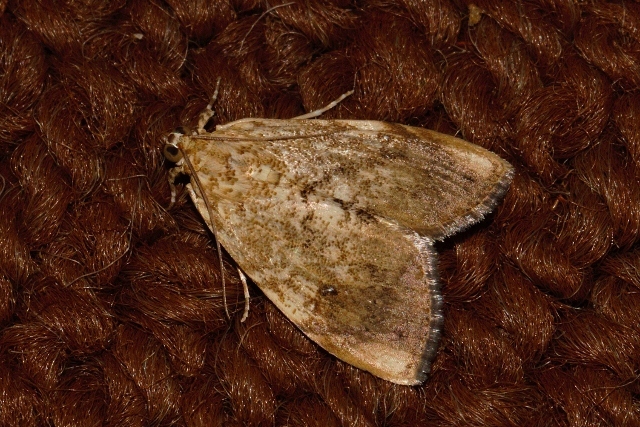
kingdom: Animalia
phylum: Arthropoda
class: Insecta
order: Lepidoptera
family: Crambidae
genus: Crocidolomia
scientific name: Crocidolomia pavonana
